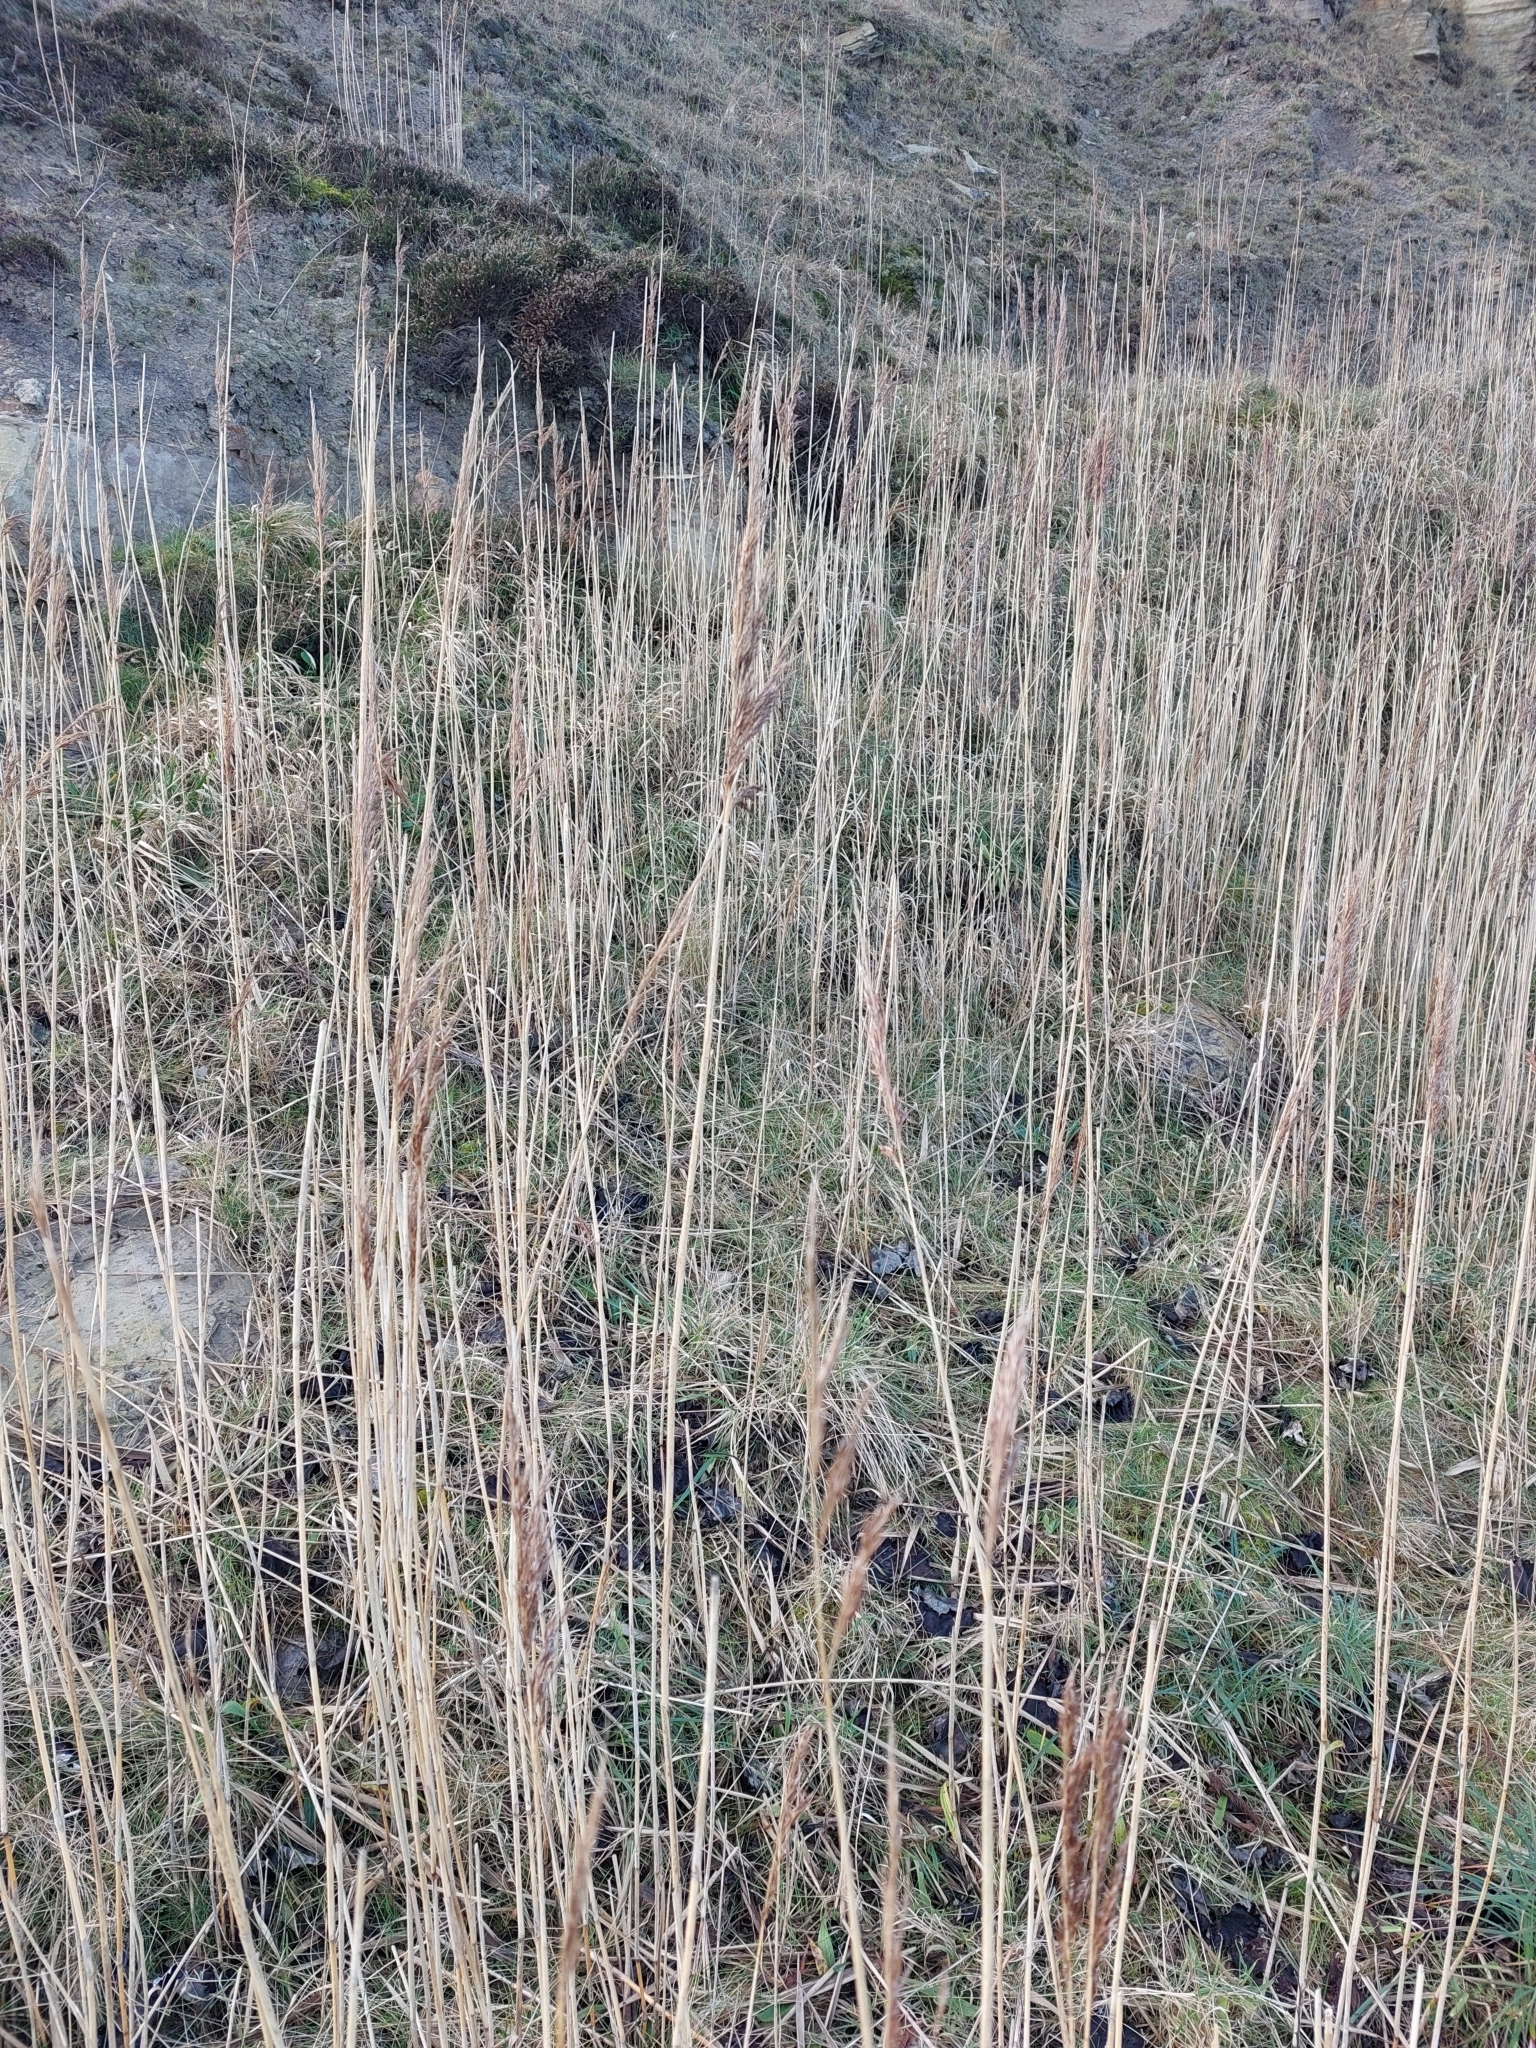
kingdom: Plantae
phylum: Tracheophyta
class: Liliopsida
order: Poales
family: Poaceae
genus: Phragmites
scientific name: Phragmites australis
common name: Common reed
